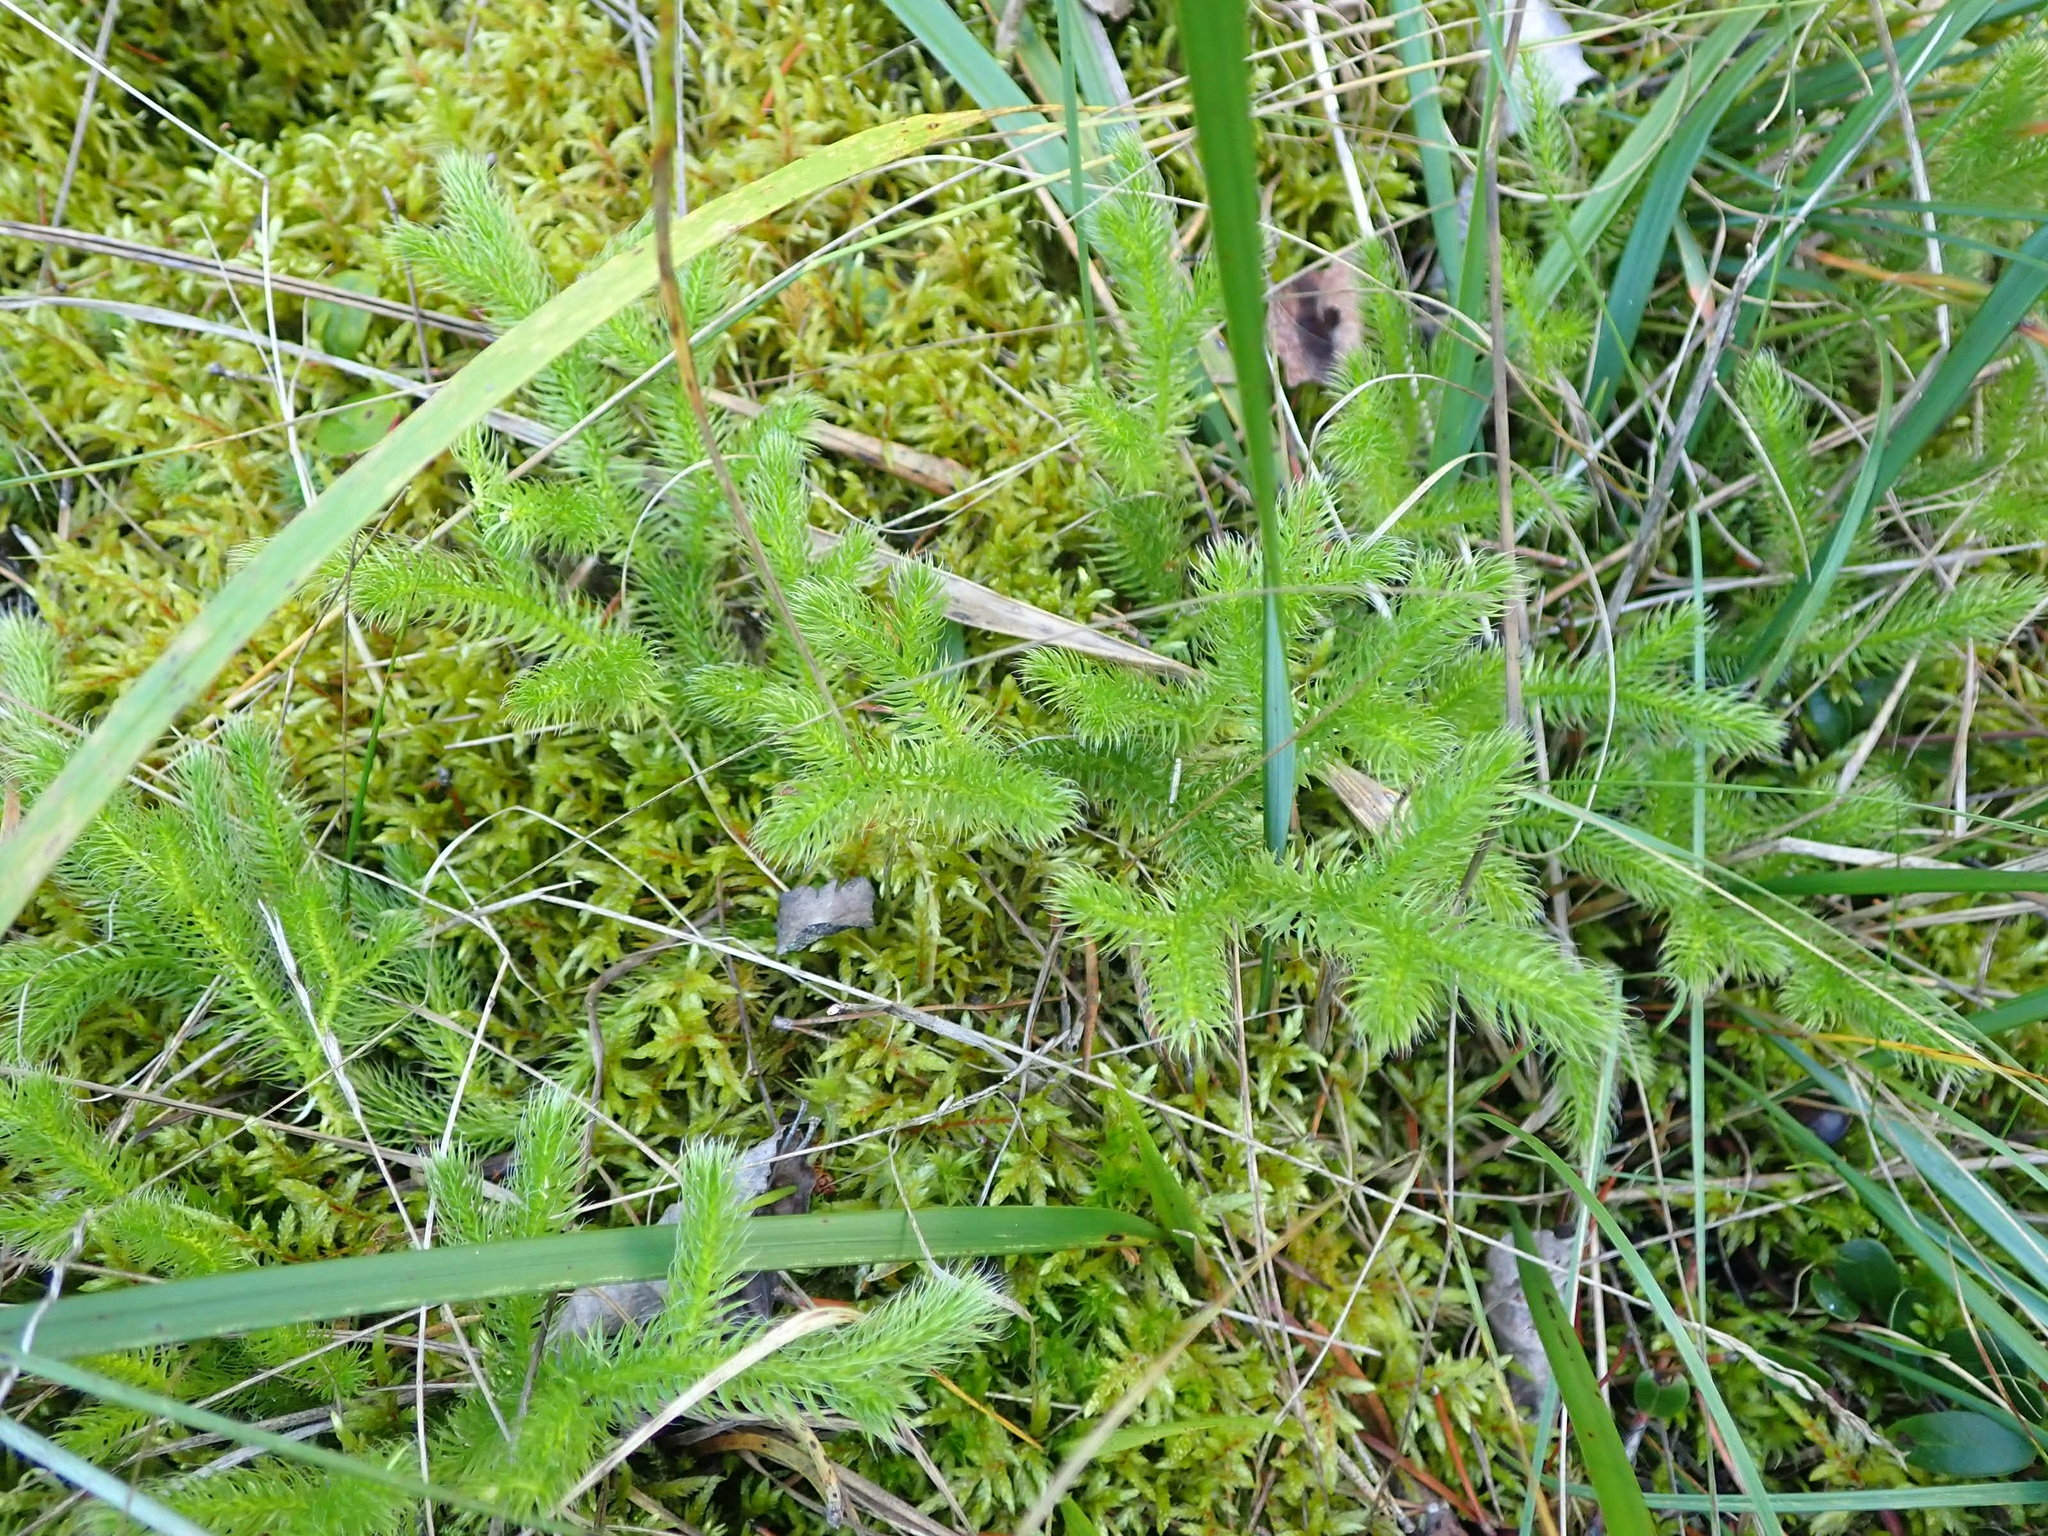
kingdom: Plantae
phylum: Tracheophyta
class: Lycopodiopsida
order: Lycopodiales
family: Lycopodiaceae
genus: Lycopodium
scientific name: Lycopodium clavatum
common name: Stag's-horn clubmoss
